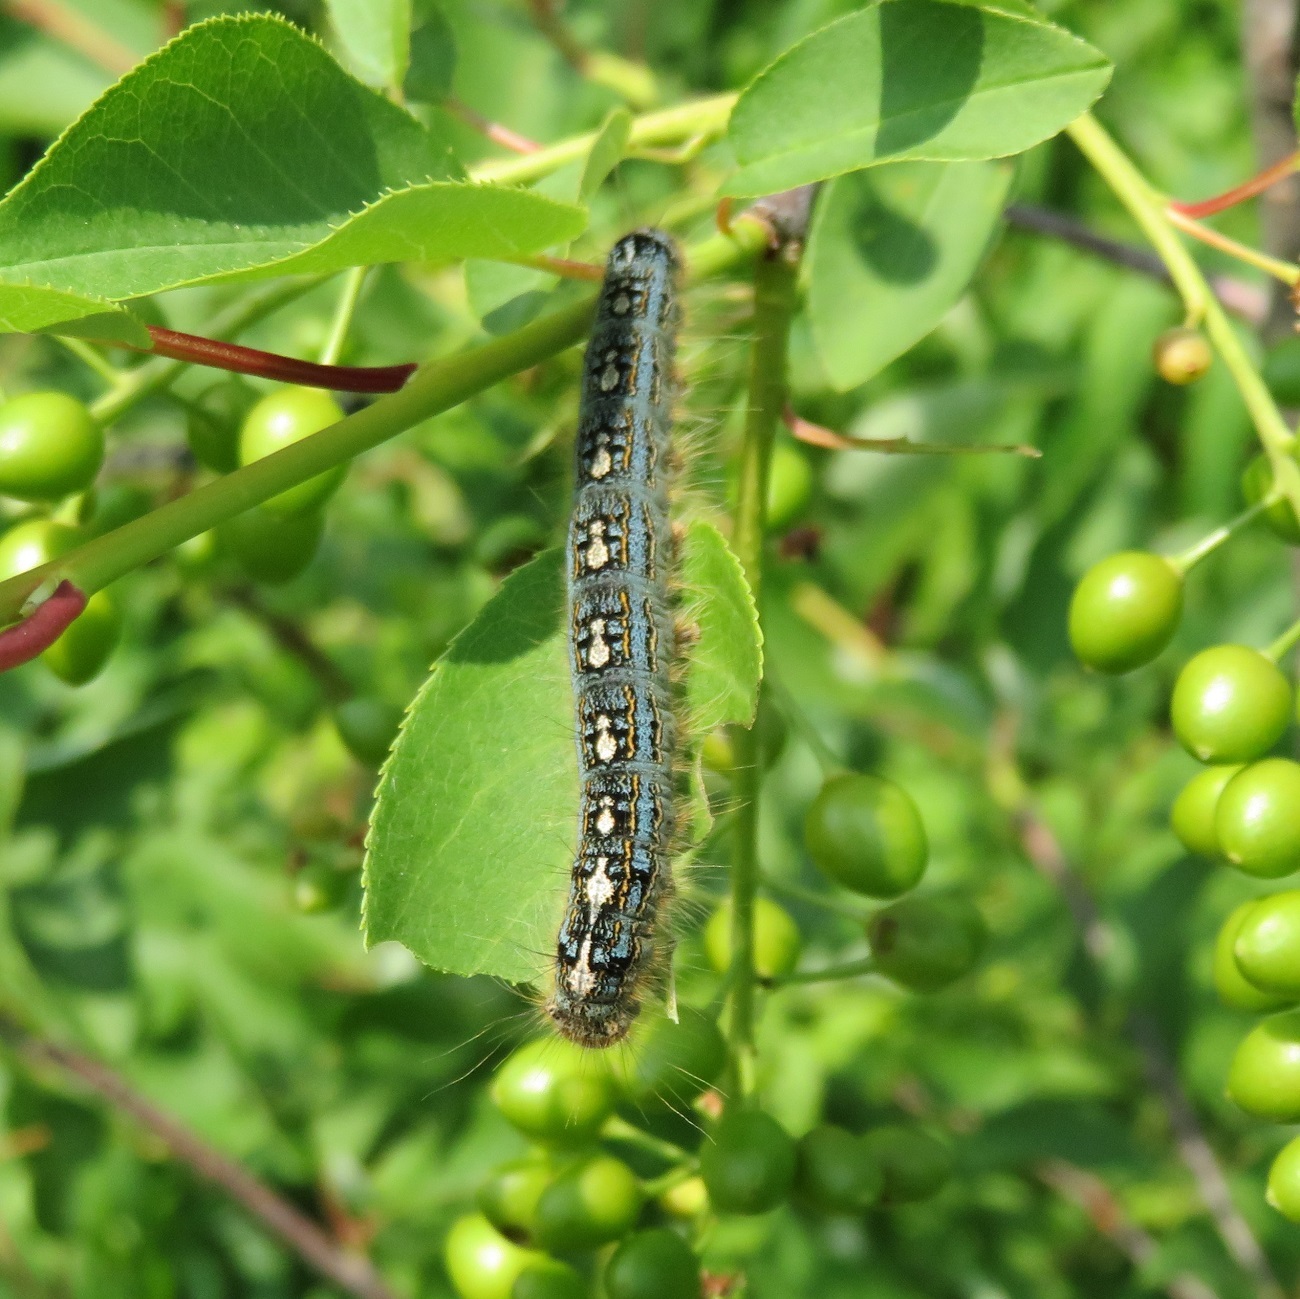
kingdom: Animalia
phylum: Arthropoda
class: Insecta
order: Lepidoptera
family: Lasiocampidae
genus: Malacosoma
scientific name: Malacosoma disstria
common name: Forest tent caterpillar
